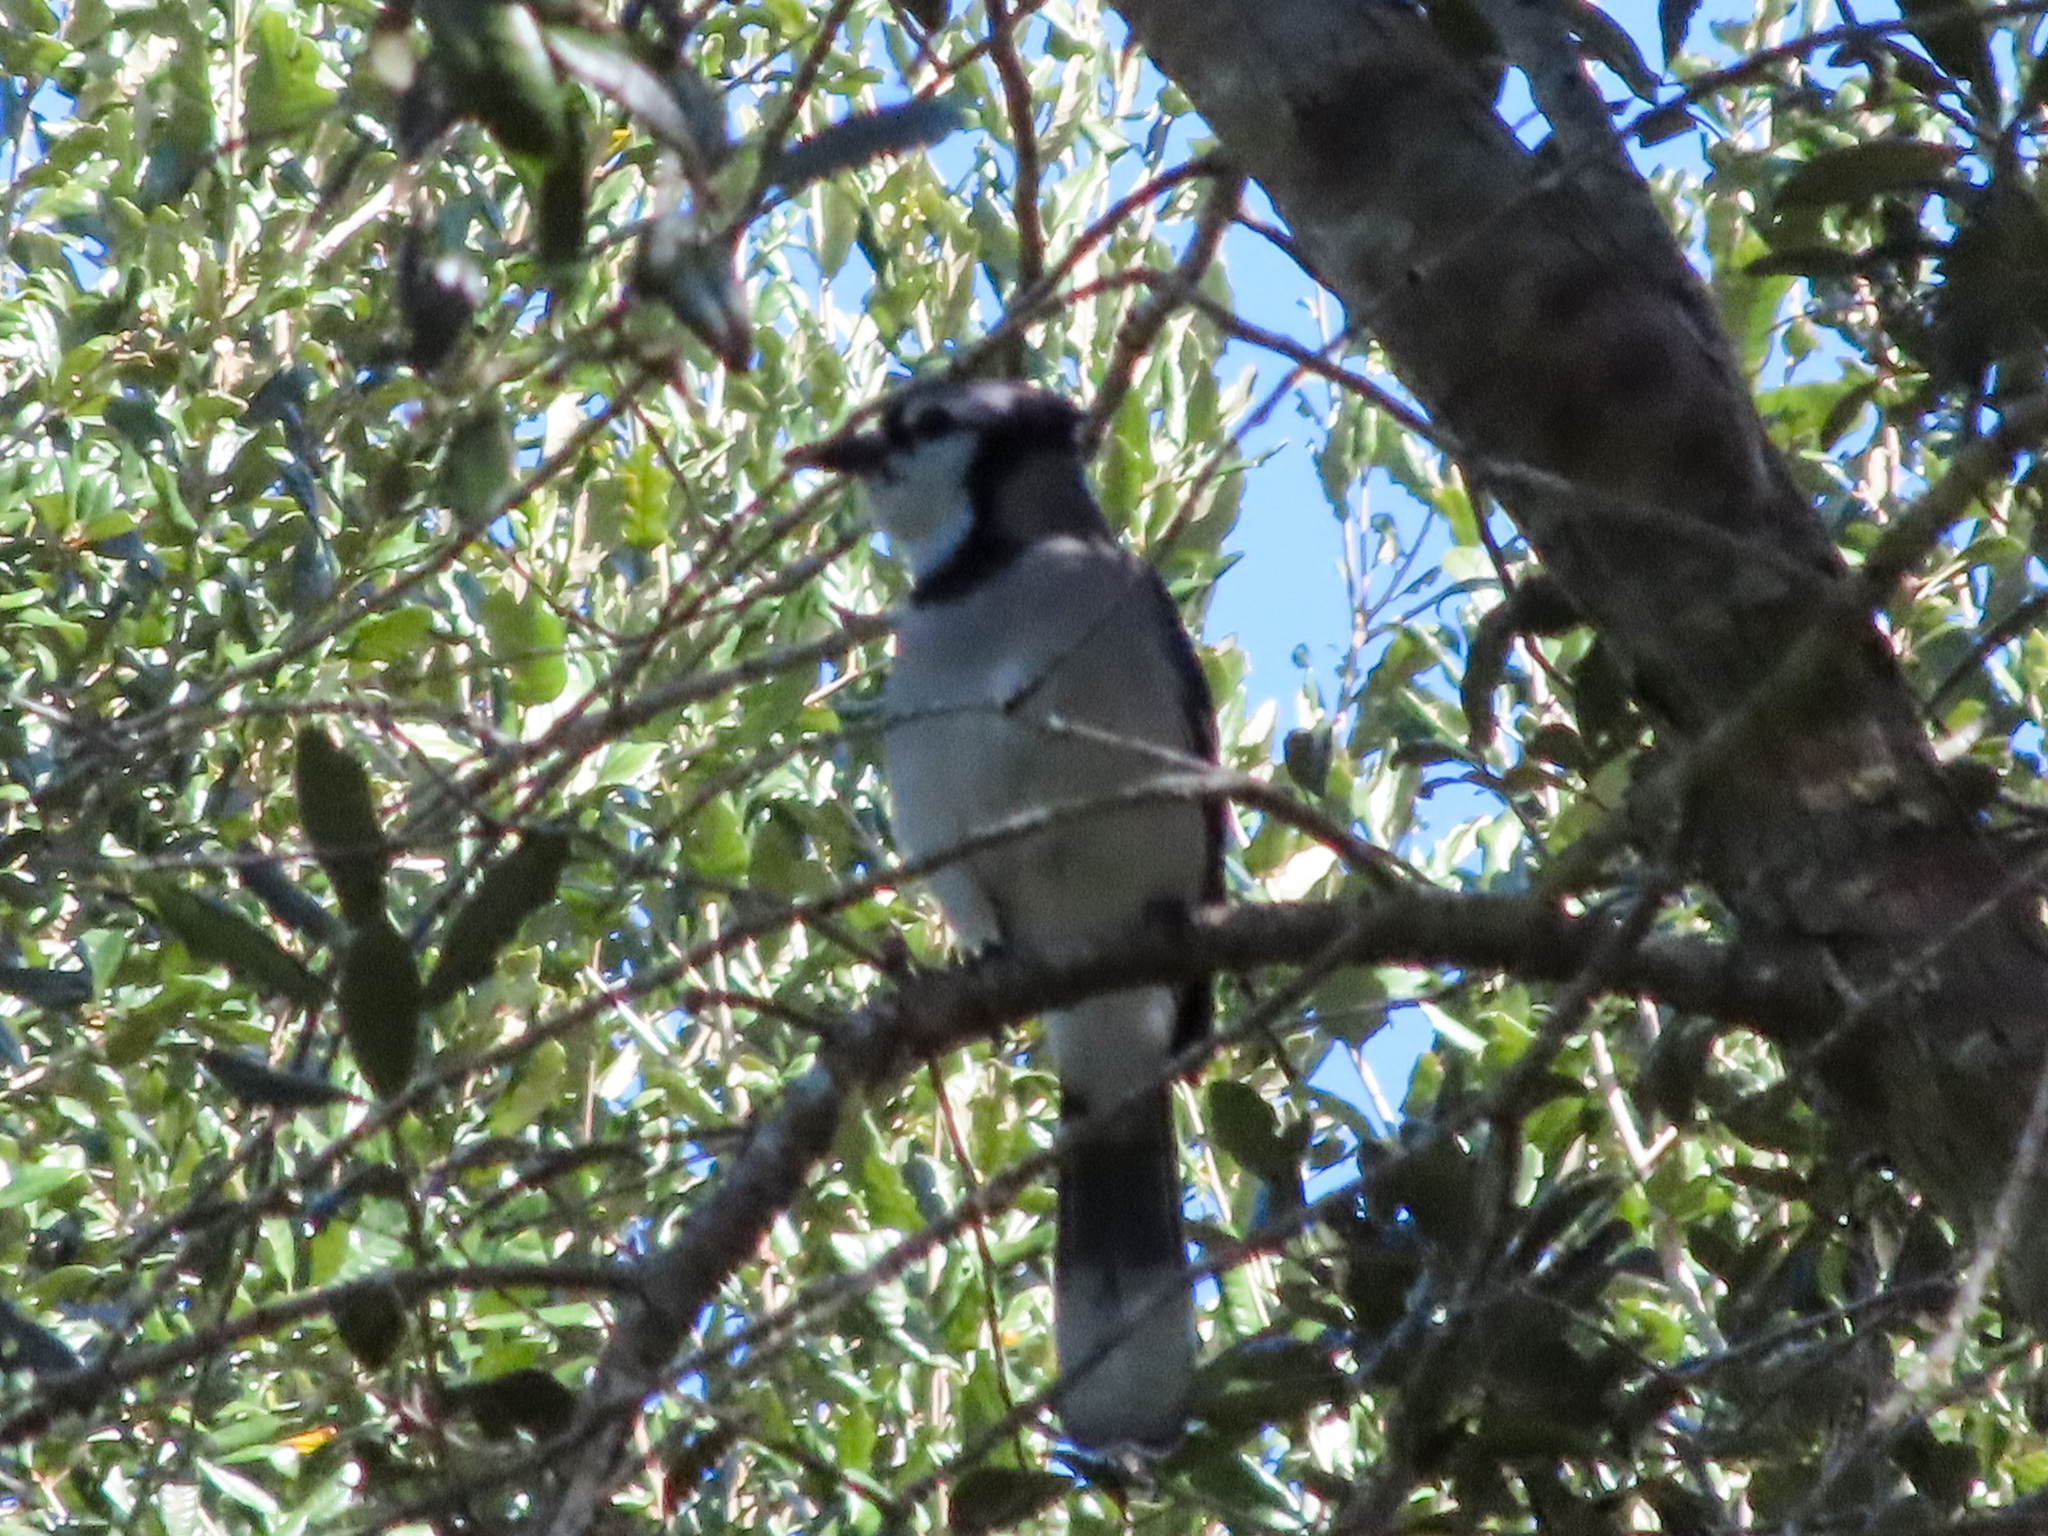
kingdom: Animalia
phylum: Chordata
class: Aves
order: Passeriformes
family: Corvidae
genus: Cyanocitta
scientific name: Cyanocitta cristata
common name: Blue jay
